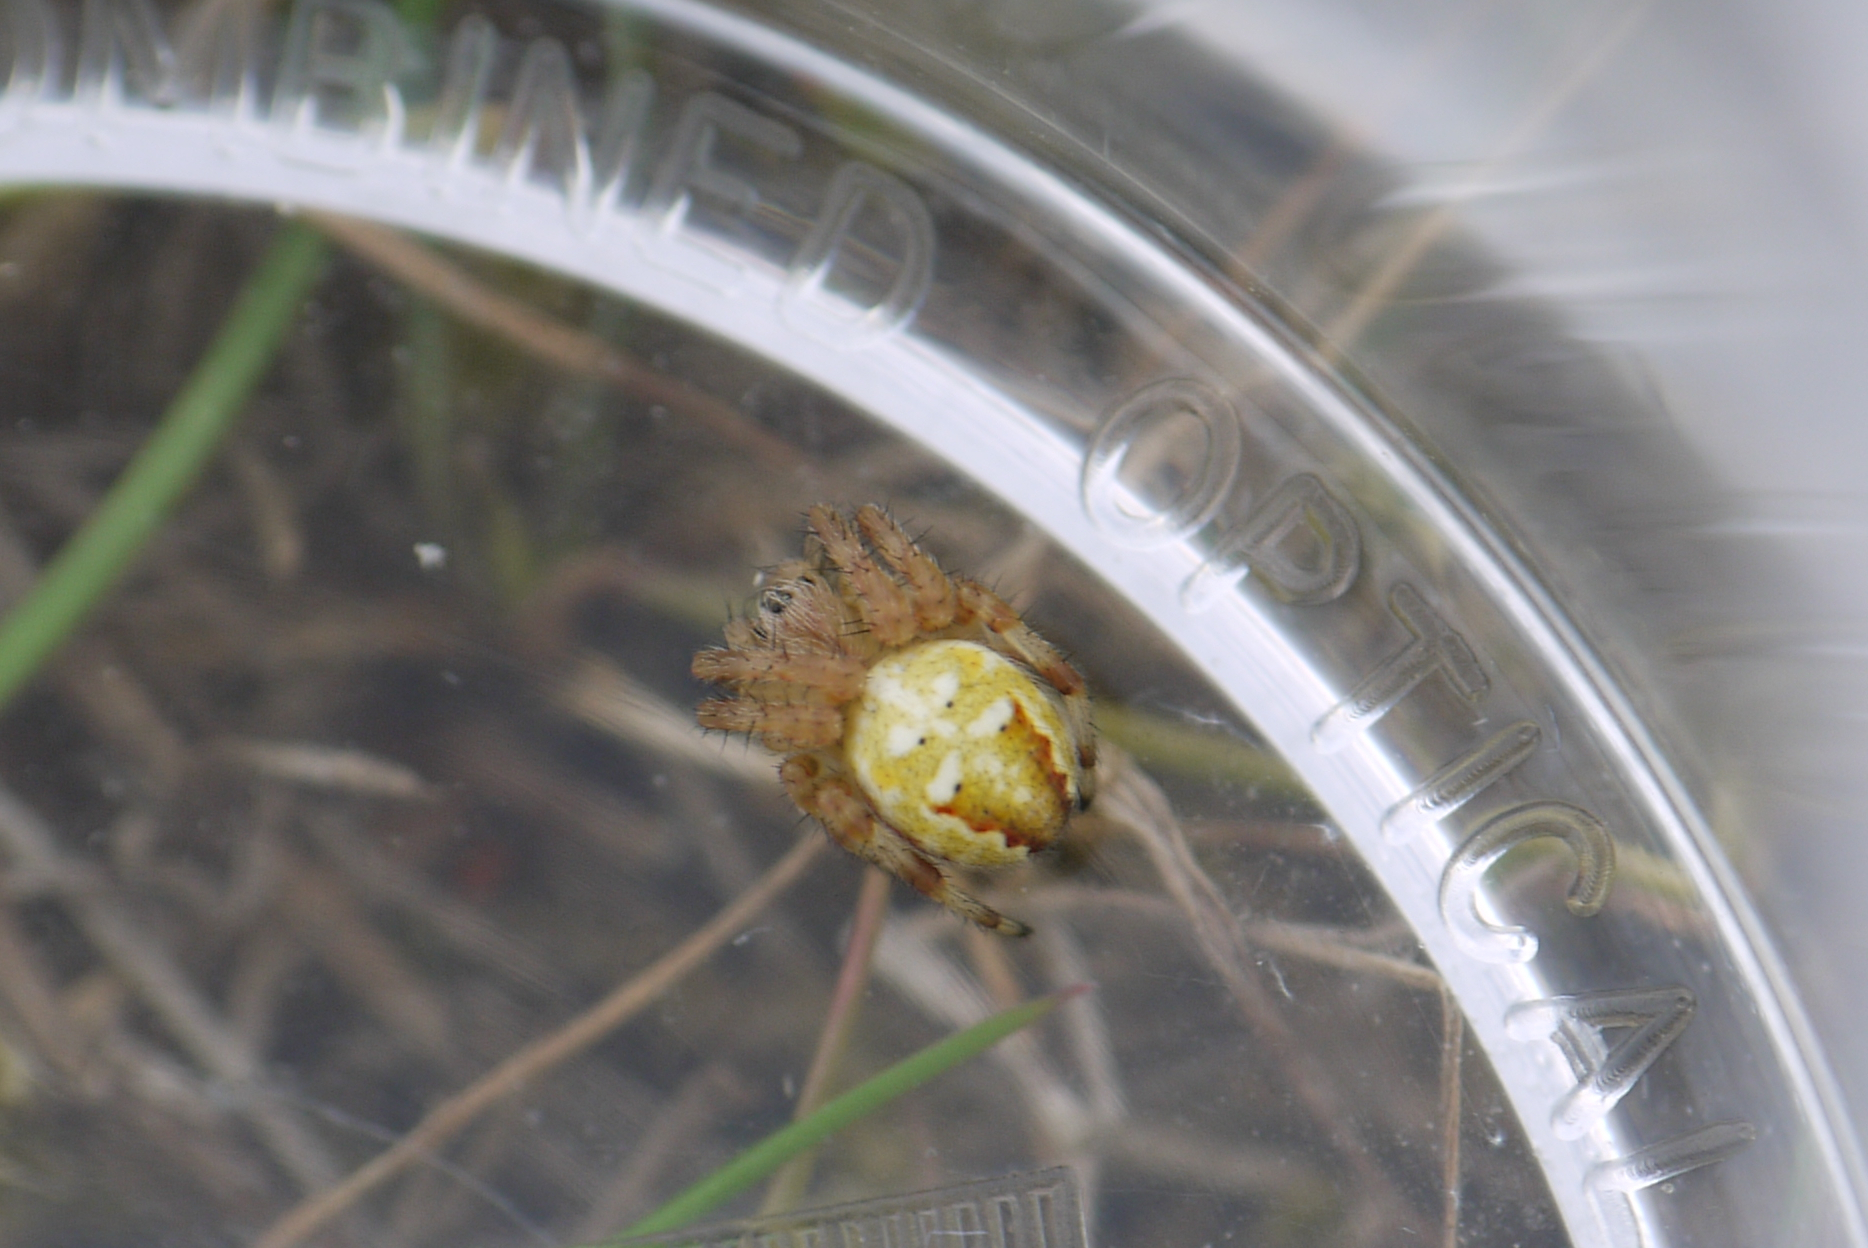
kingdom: Animalia
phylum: Arthropoda
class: Arachnida
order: Araneae
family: Araneidae
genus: Araneus
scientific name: Araneus quadratus
